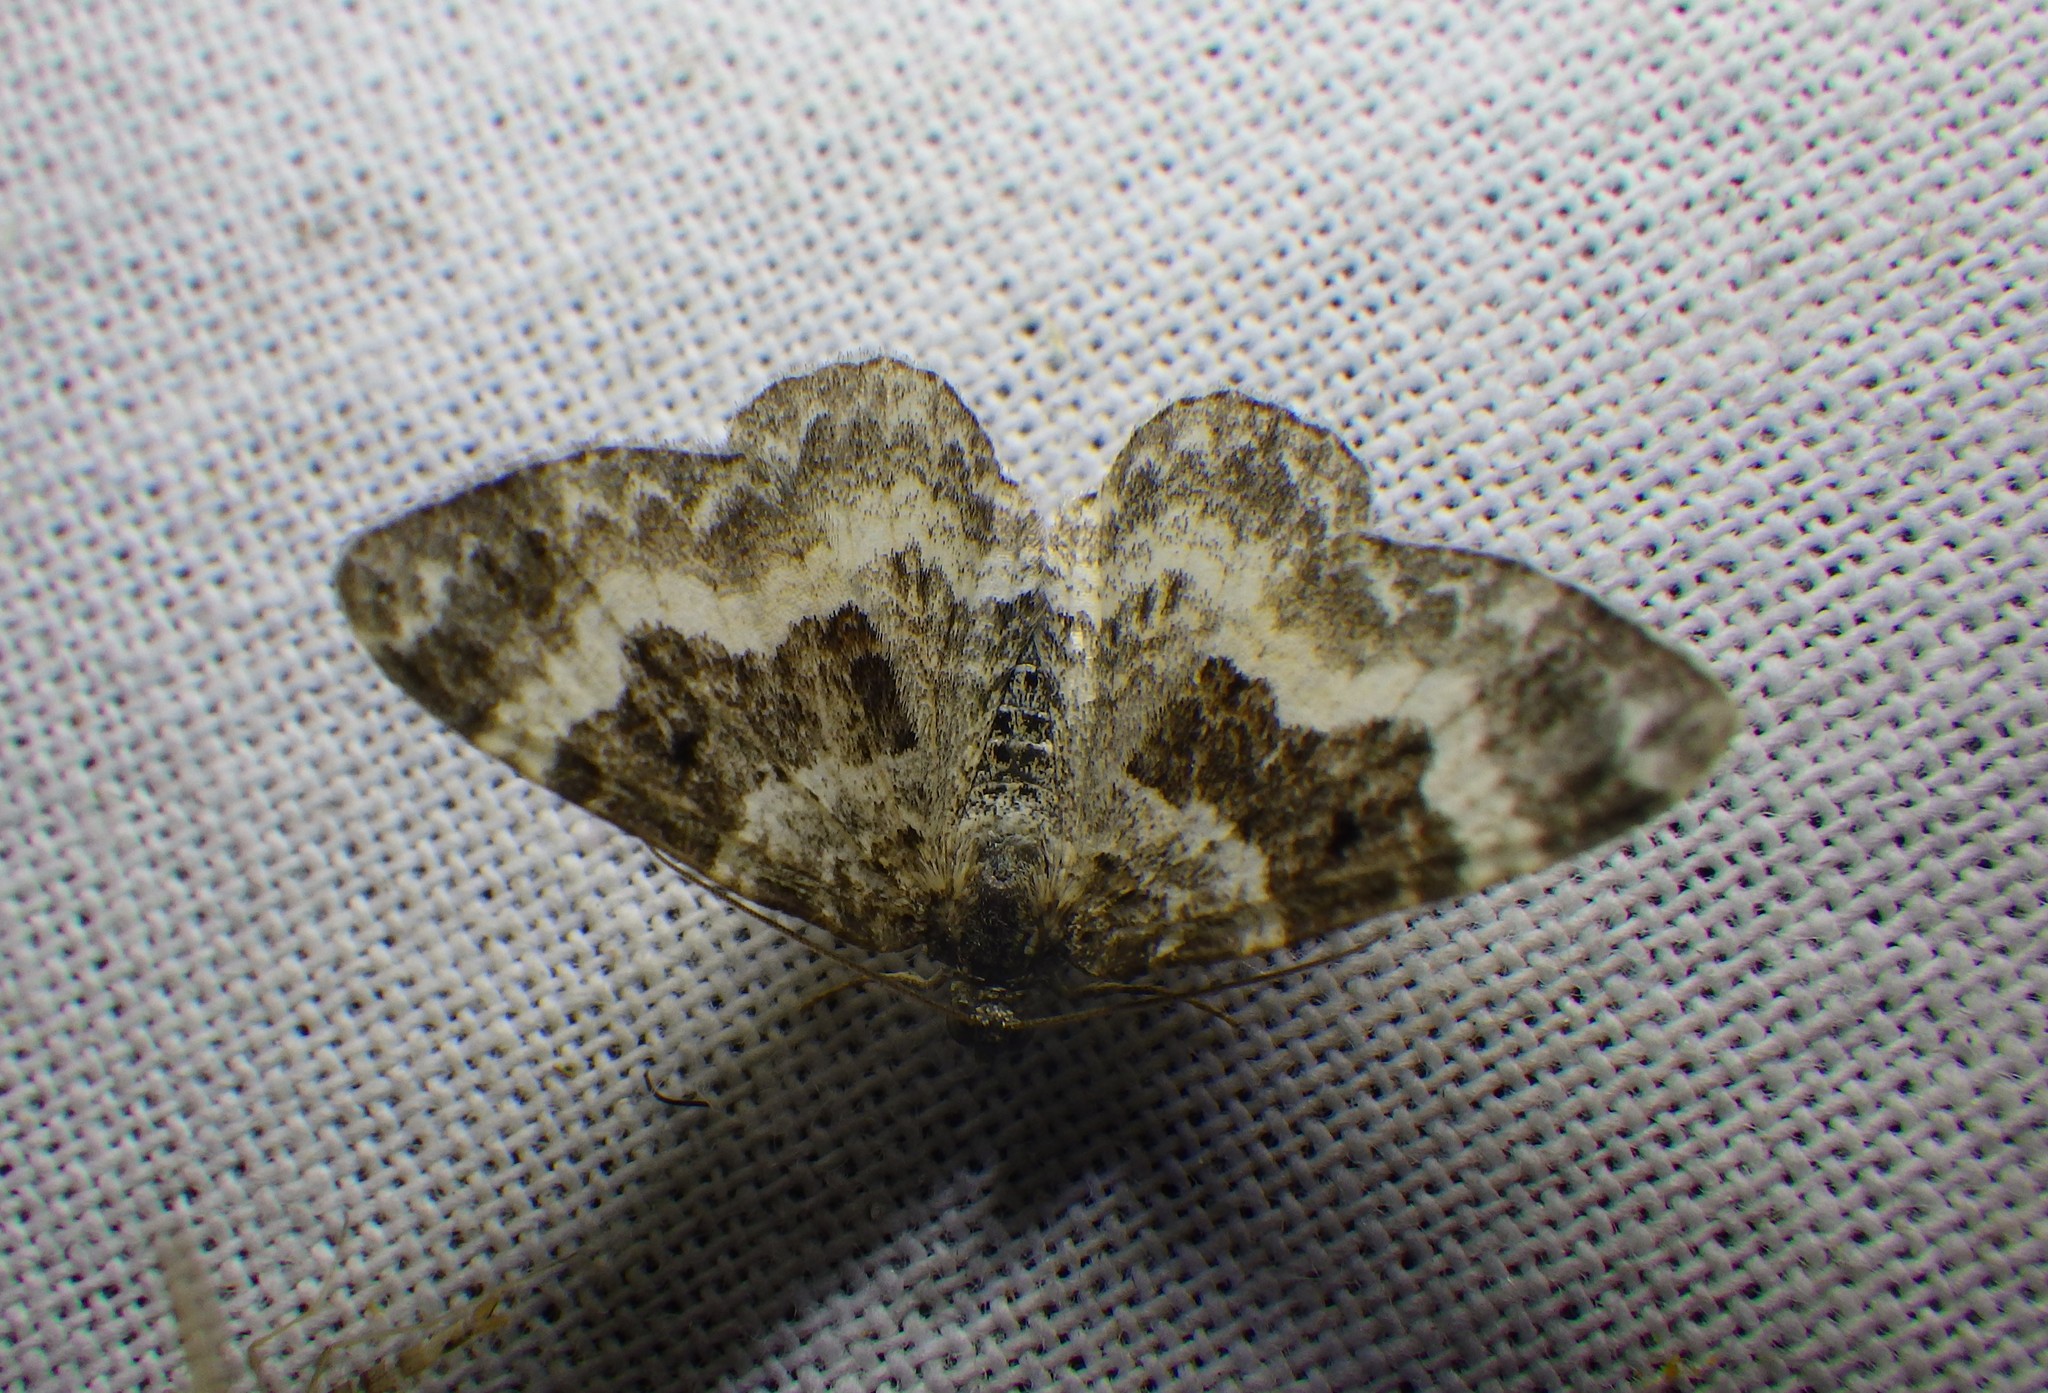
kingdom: Animalia
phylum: Arthropoda
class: Insecta
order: Lepidoptera
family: Geometridae
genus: Epirrhoe
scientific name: Epirrhoe alternata
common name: Common carpet
